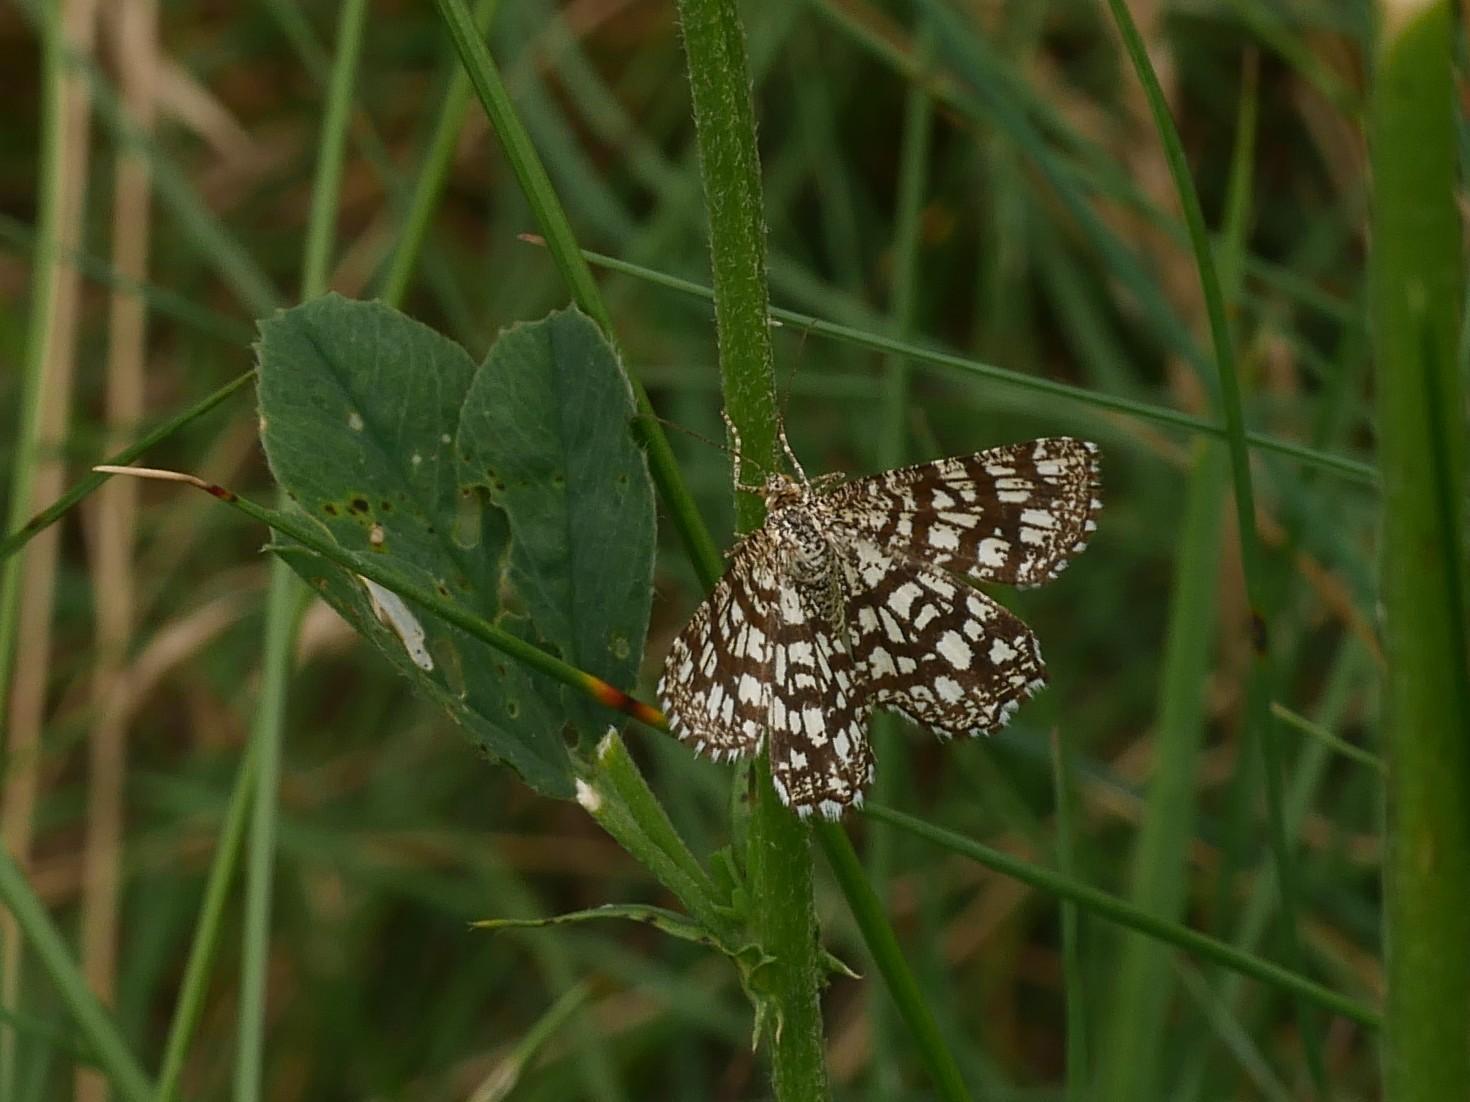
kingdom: Animalia
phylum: Arthropoda
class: Insecta
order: Lepidoptera
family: Geometridae
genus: Chiasmia
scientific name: Chiasmia clathrata
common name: Latticed heath
